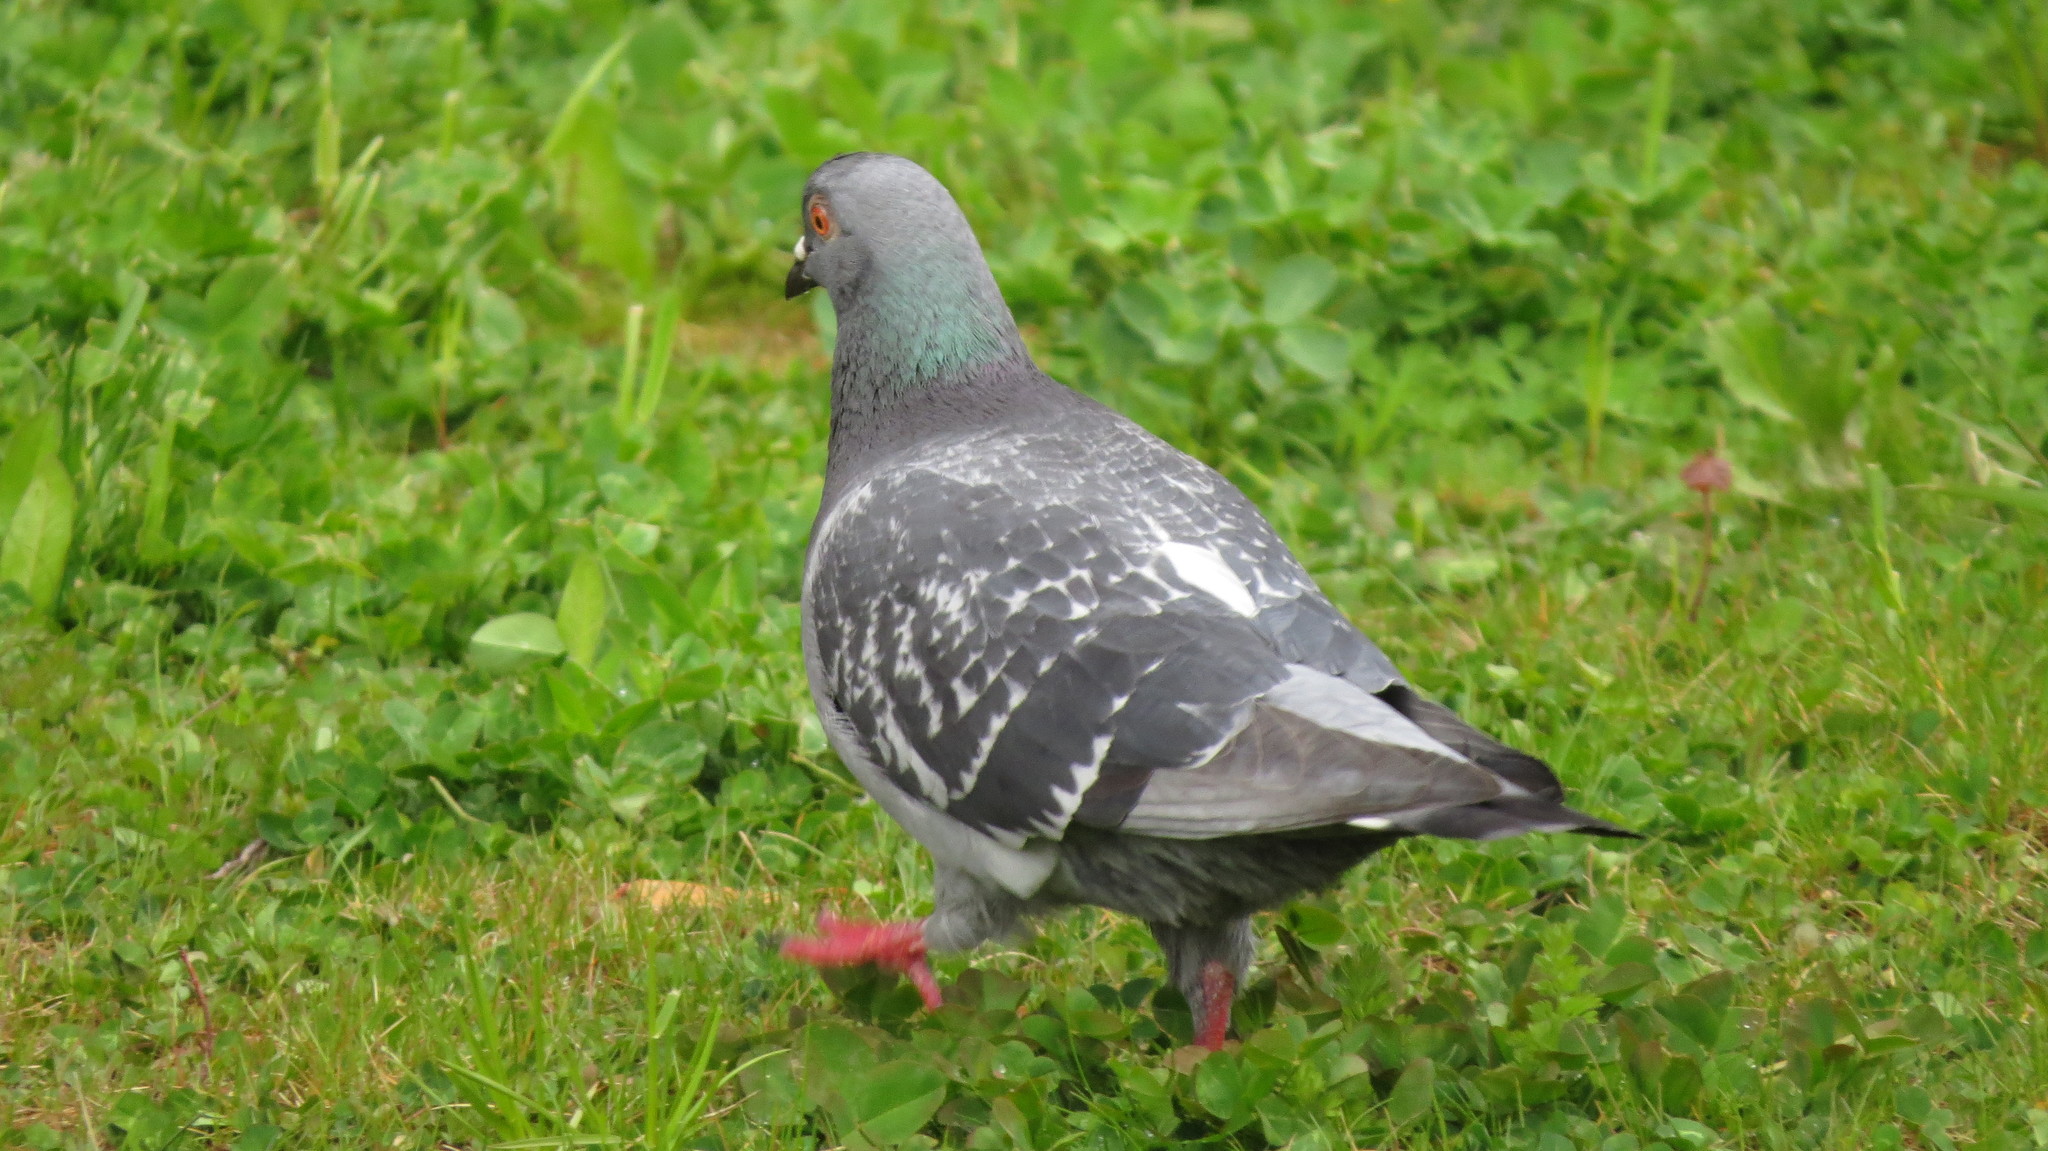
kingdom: Animalia
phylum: Chordata
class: Aves
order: Columbiformes
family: Columbidae
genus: Columba
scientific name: Columba livia
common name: Rock pigeon
